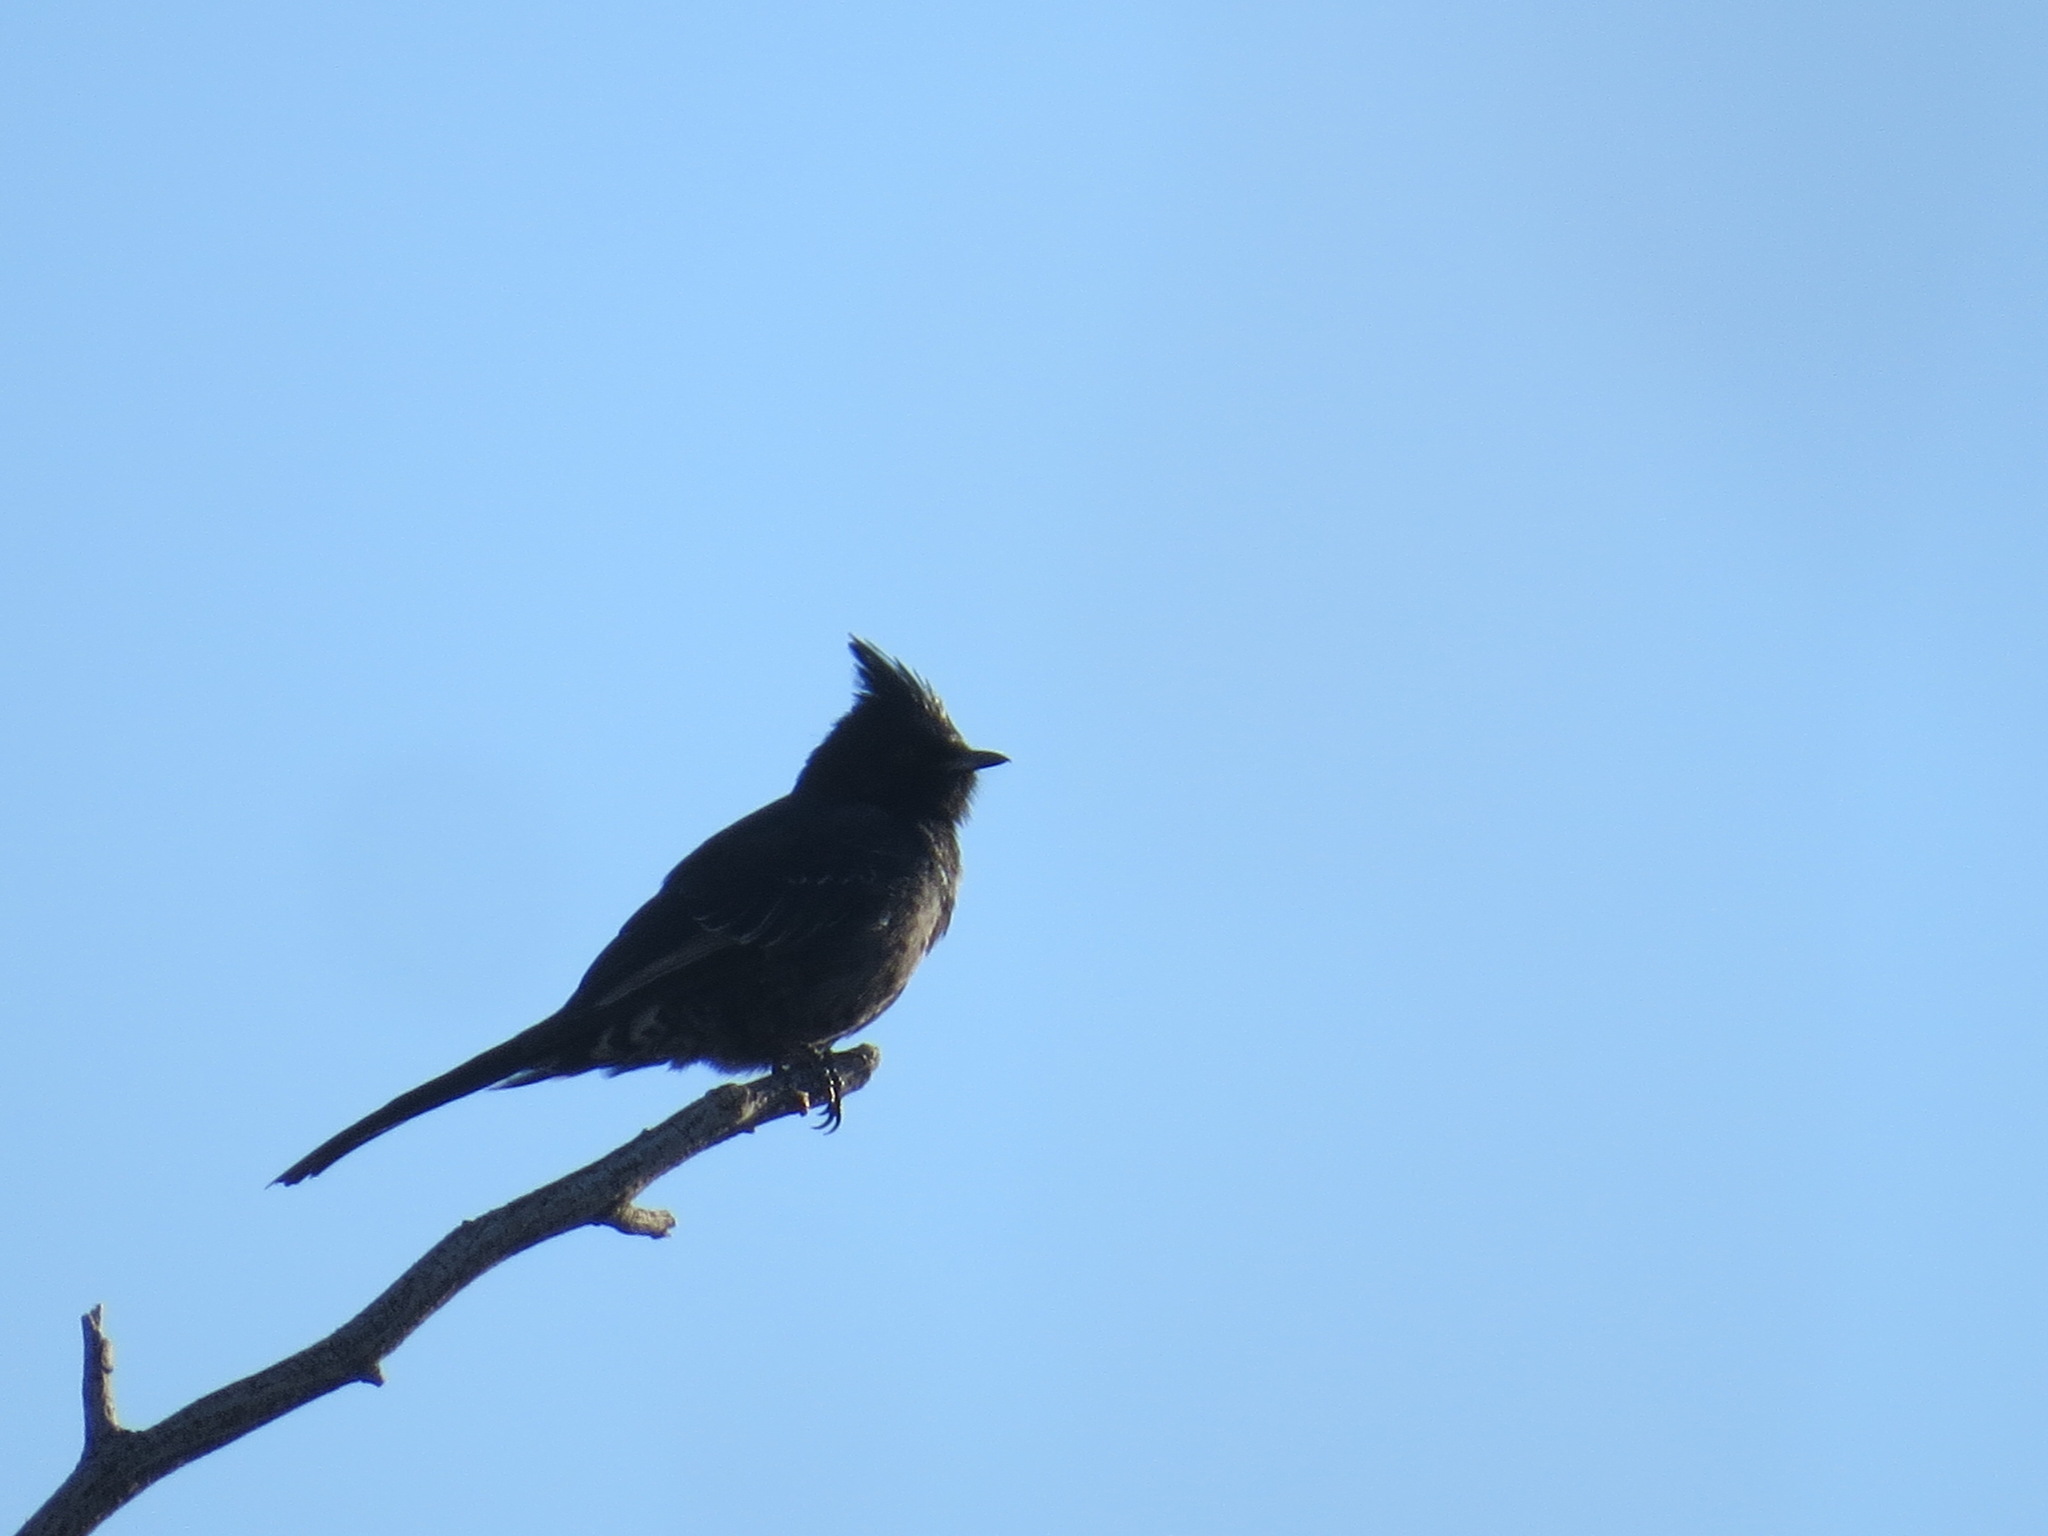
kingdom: Animalia
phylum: Chordata
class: Aves
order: Passeriformes
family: Ptilogonatidae
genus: Phainopepla
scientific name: Phainopepla nitens
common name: Phainopepla
